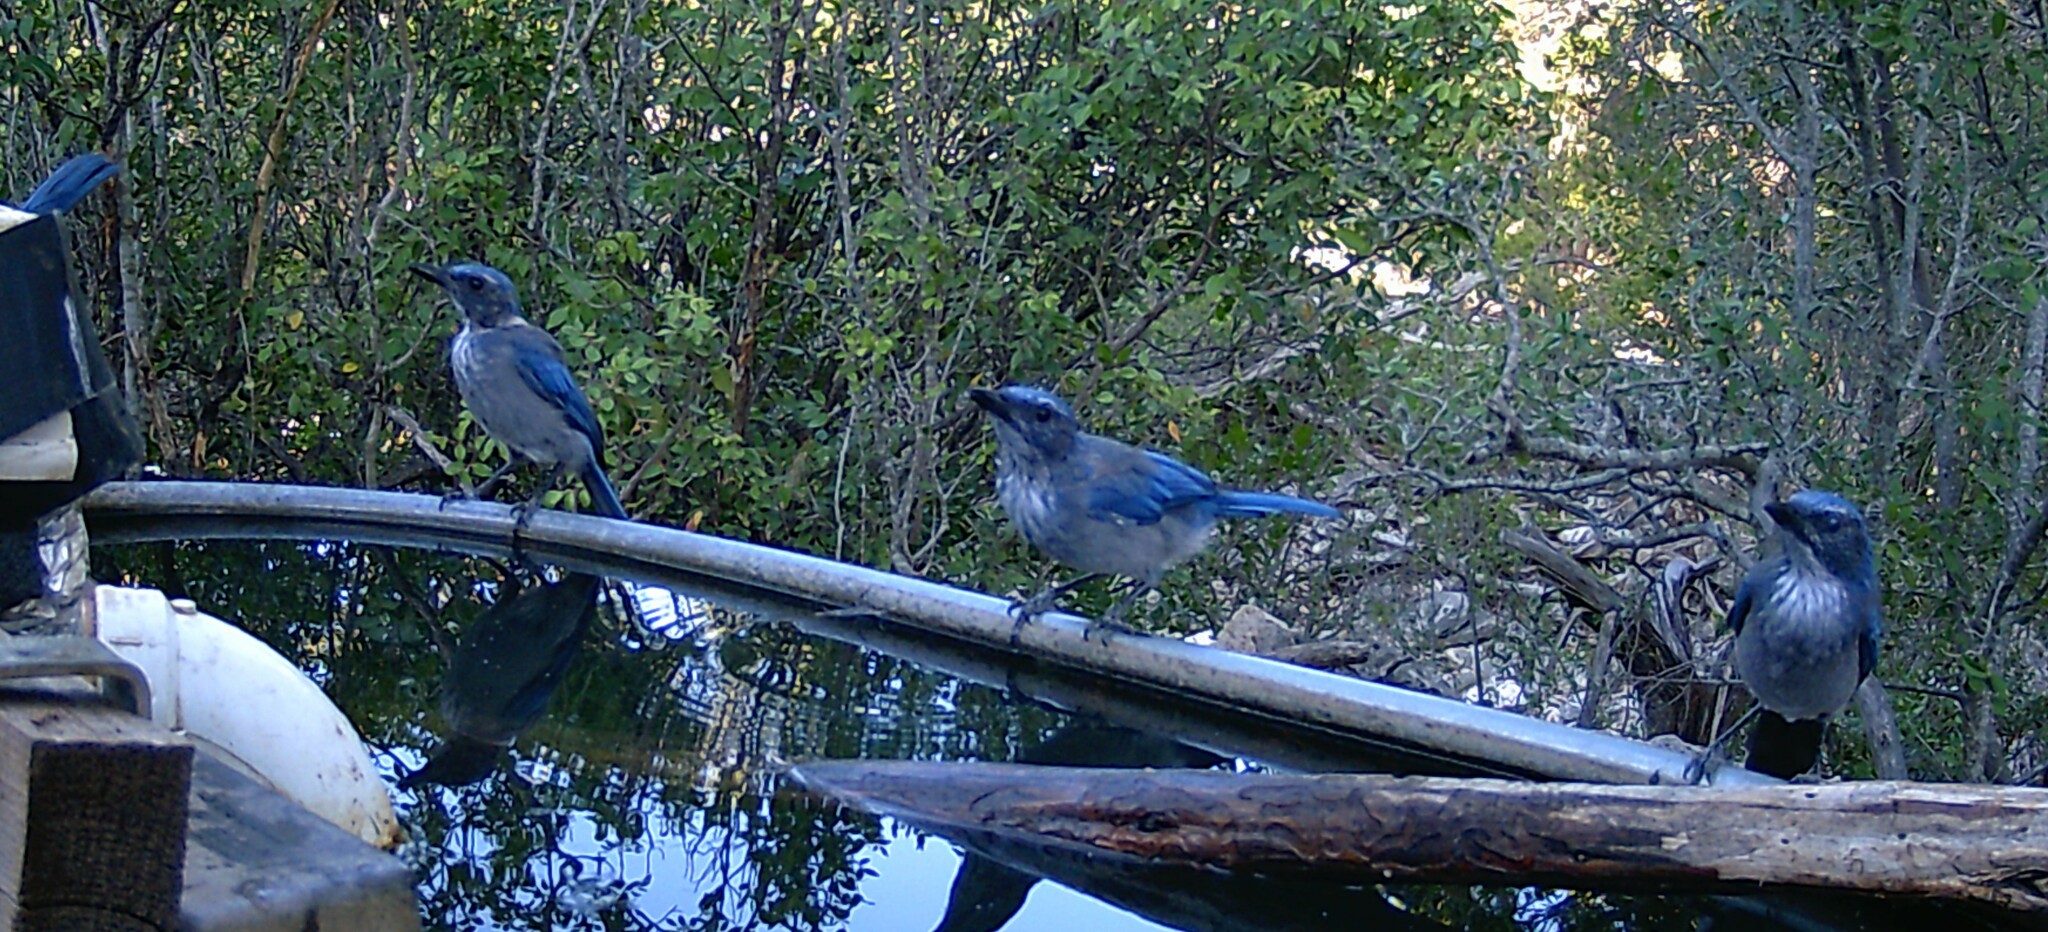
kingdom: Animalia
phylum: Chordata
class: Aves
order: Passeriformes
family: Corvidae
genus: Aphelocoma
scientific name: Aphelocoma woodhouseii
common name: Woodhouse's scrub-jay
